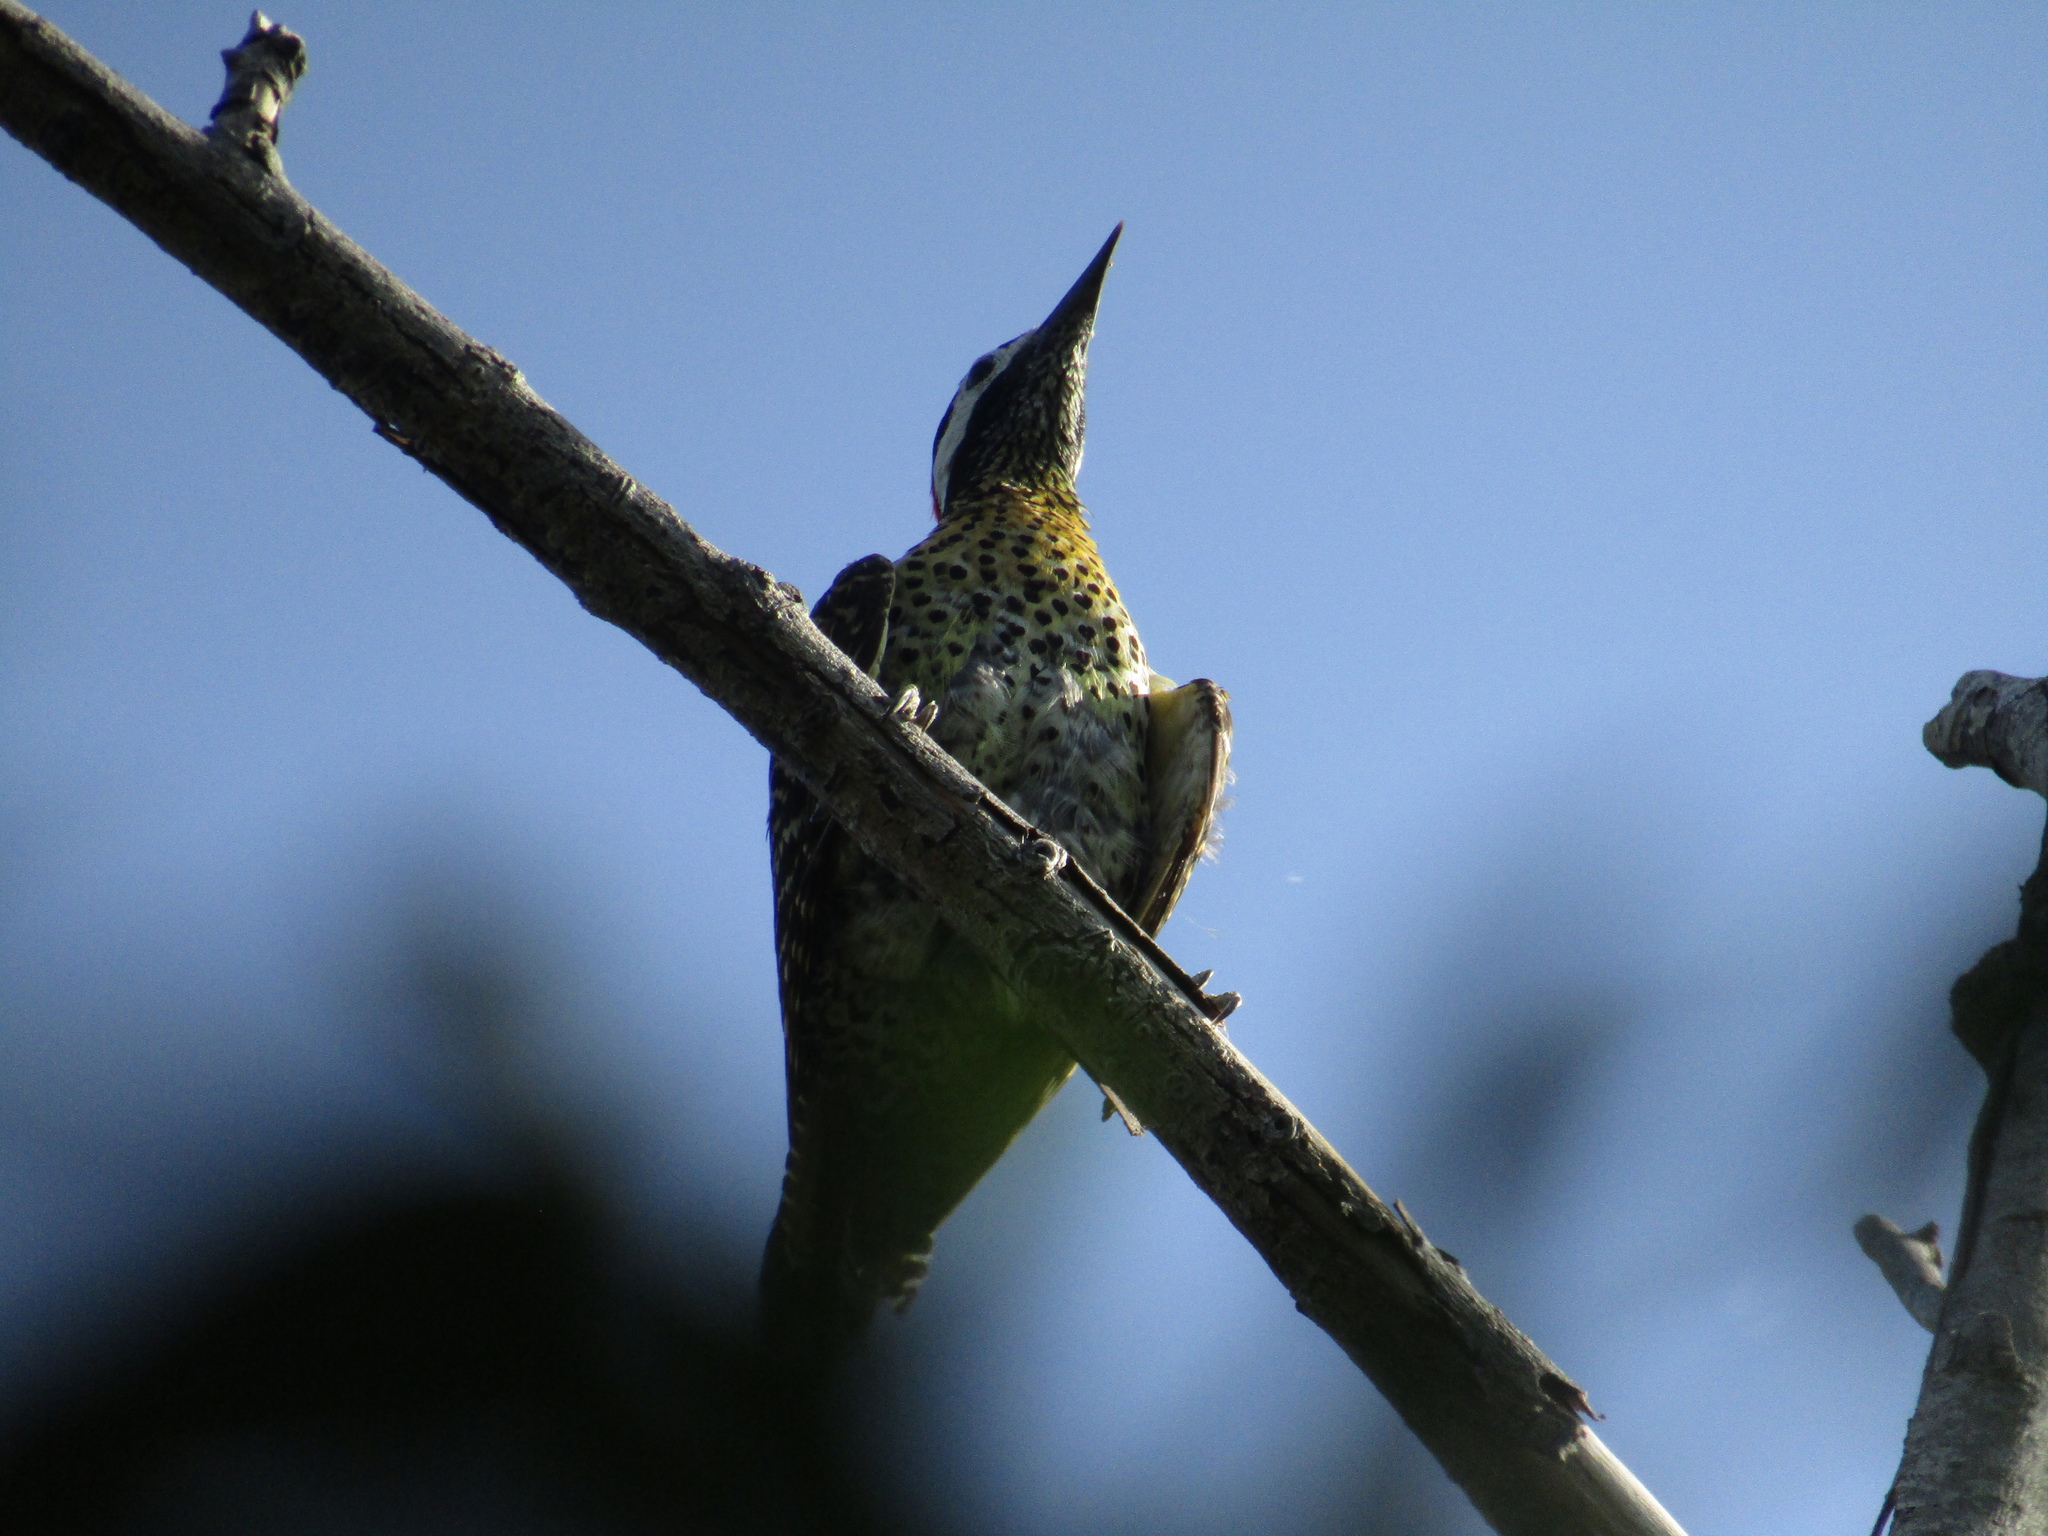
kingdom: Animalia
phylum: Chordata
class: Aves
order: Piciformes
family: Picidae
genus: Colaptes
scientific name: Colaptes melanochloros
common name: Green-barred woodpecker
